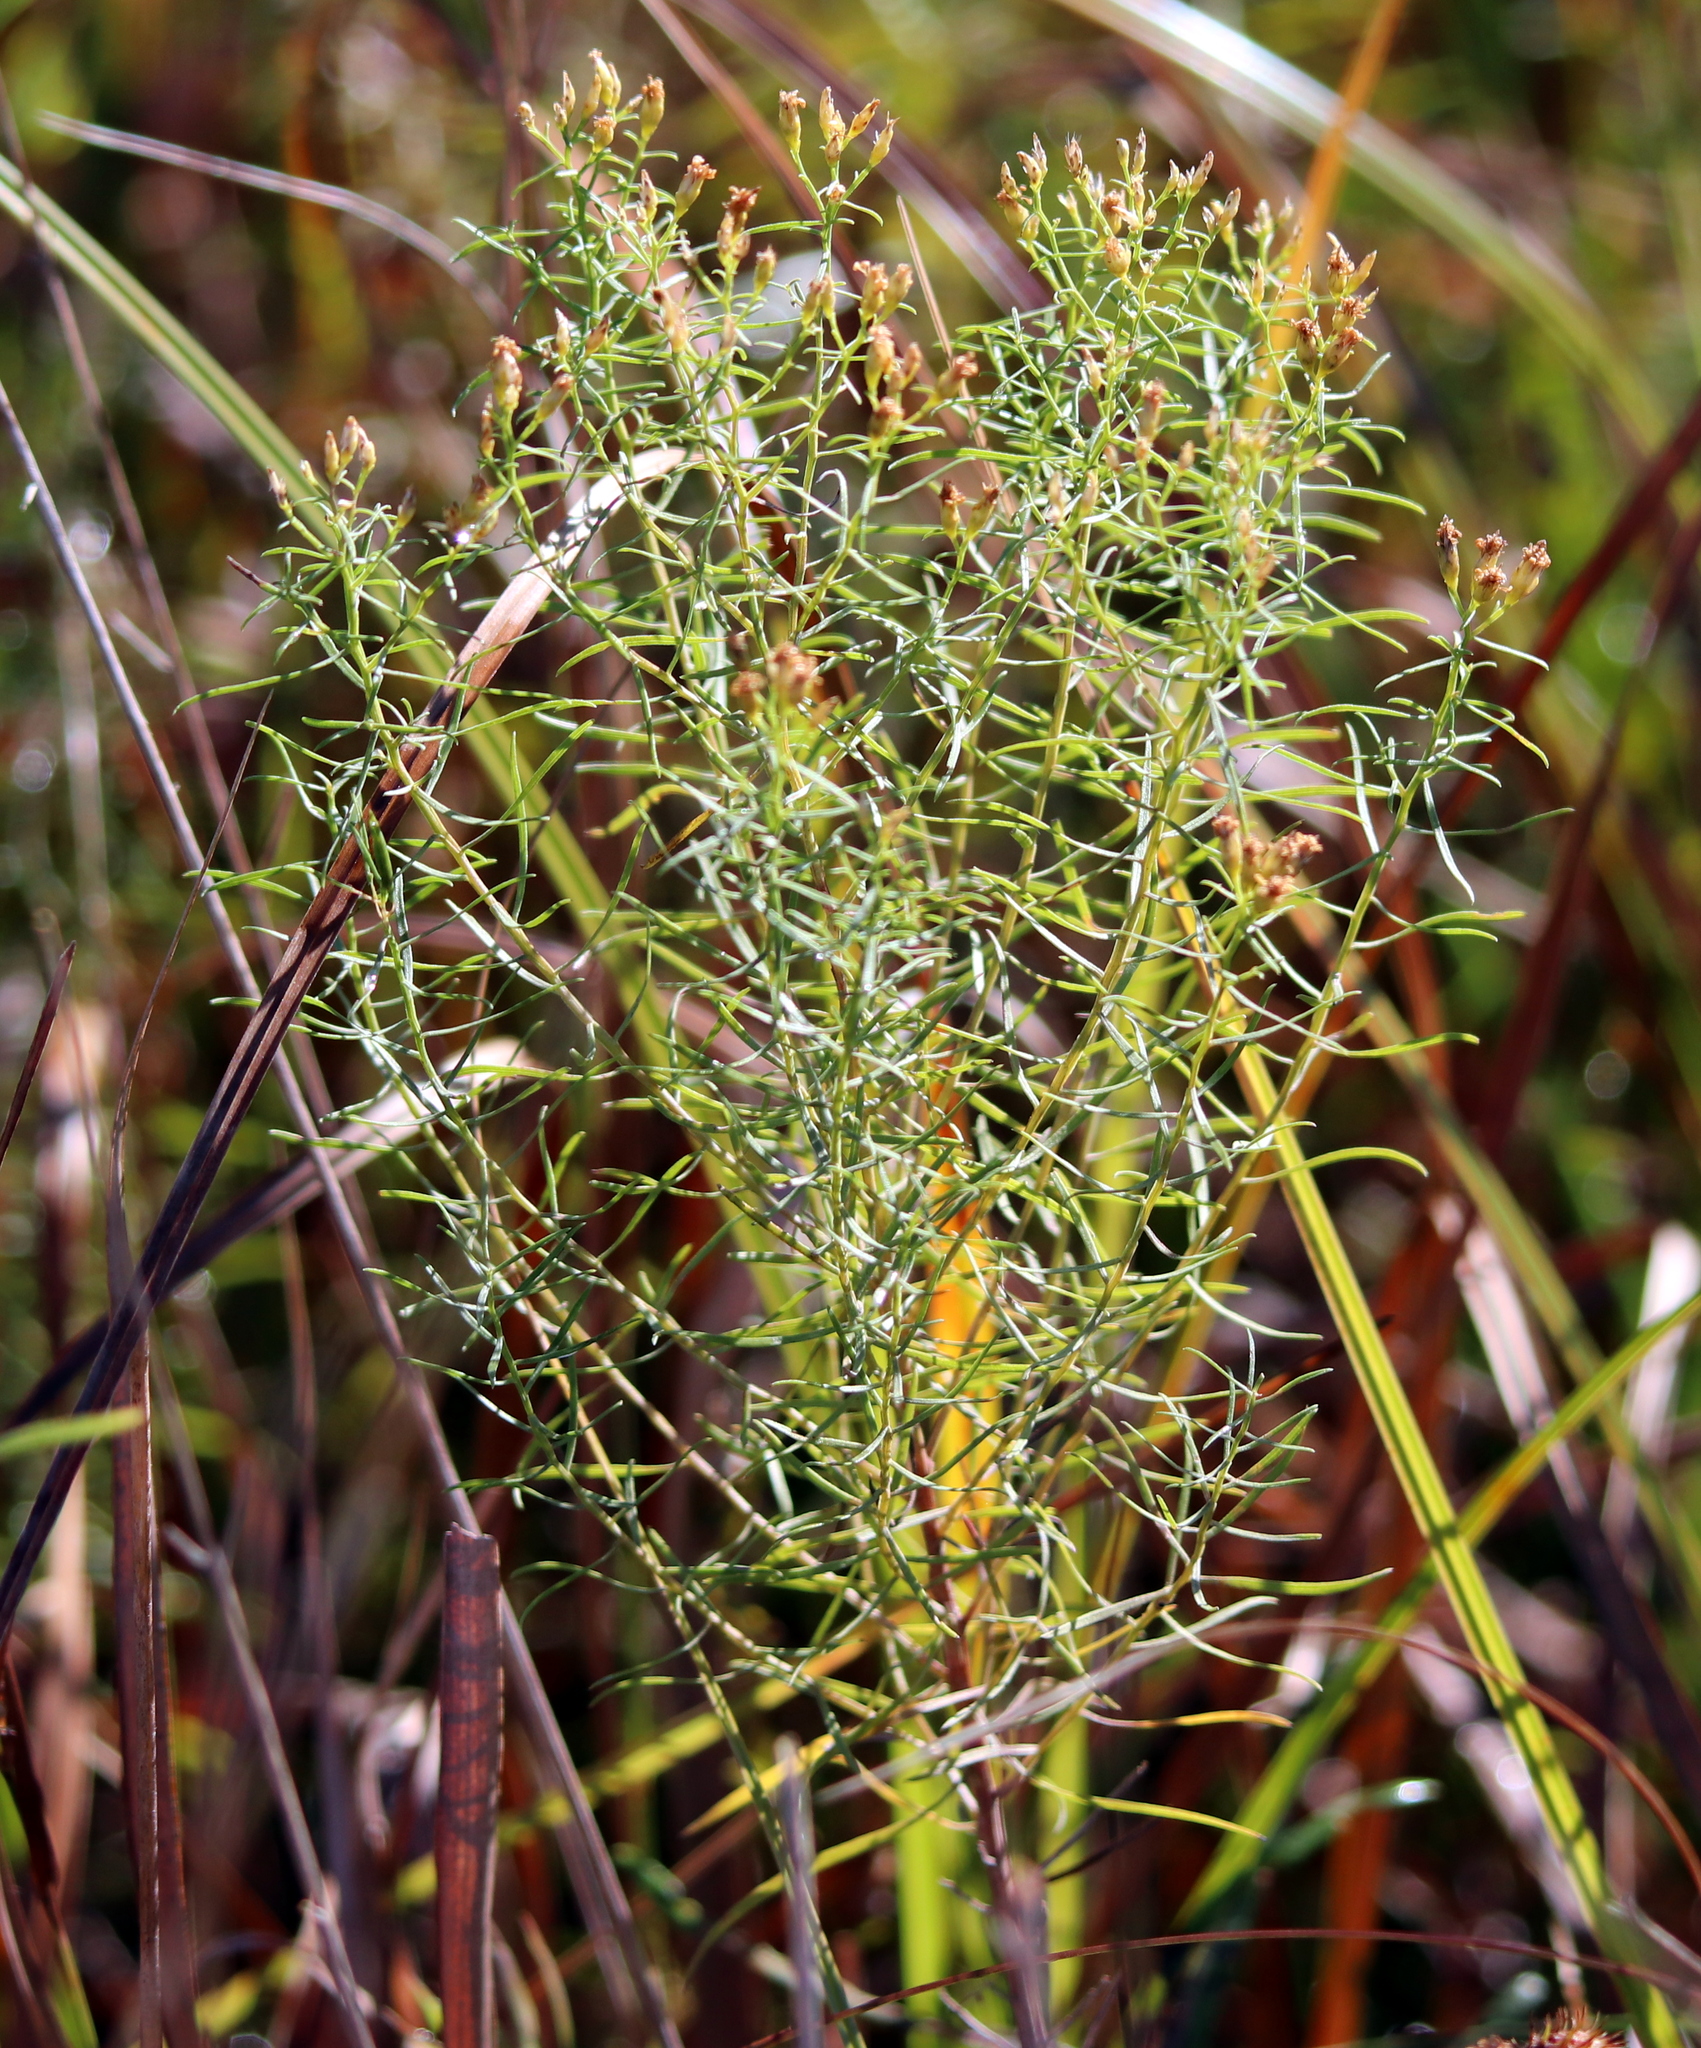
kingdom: Plantae
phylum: Tracheophyta
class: Magnoliopsida
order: Asterales
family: Asteraceae
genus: Euthamia
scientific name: Euthamia caroliniana
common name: Coastal plain goldentop
